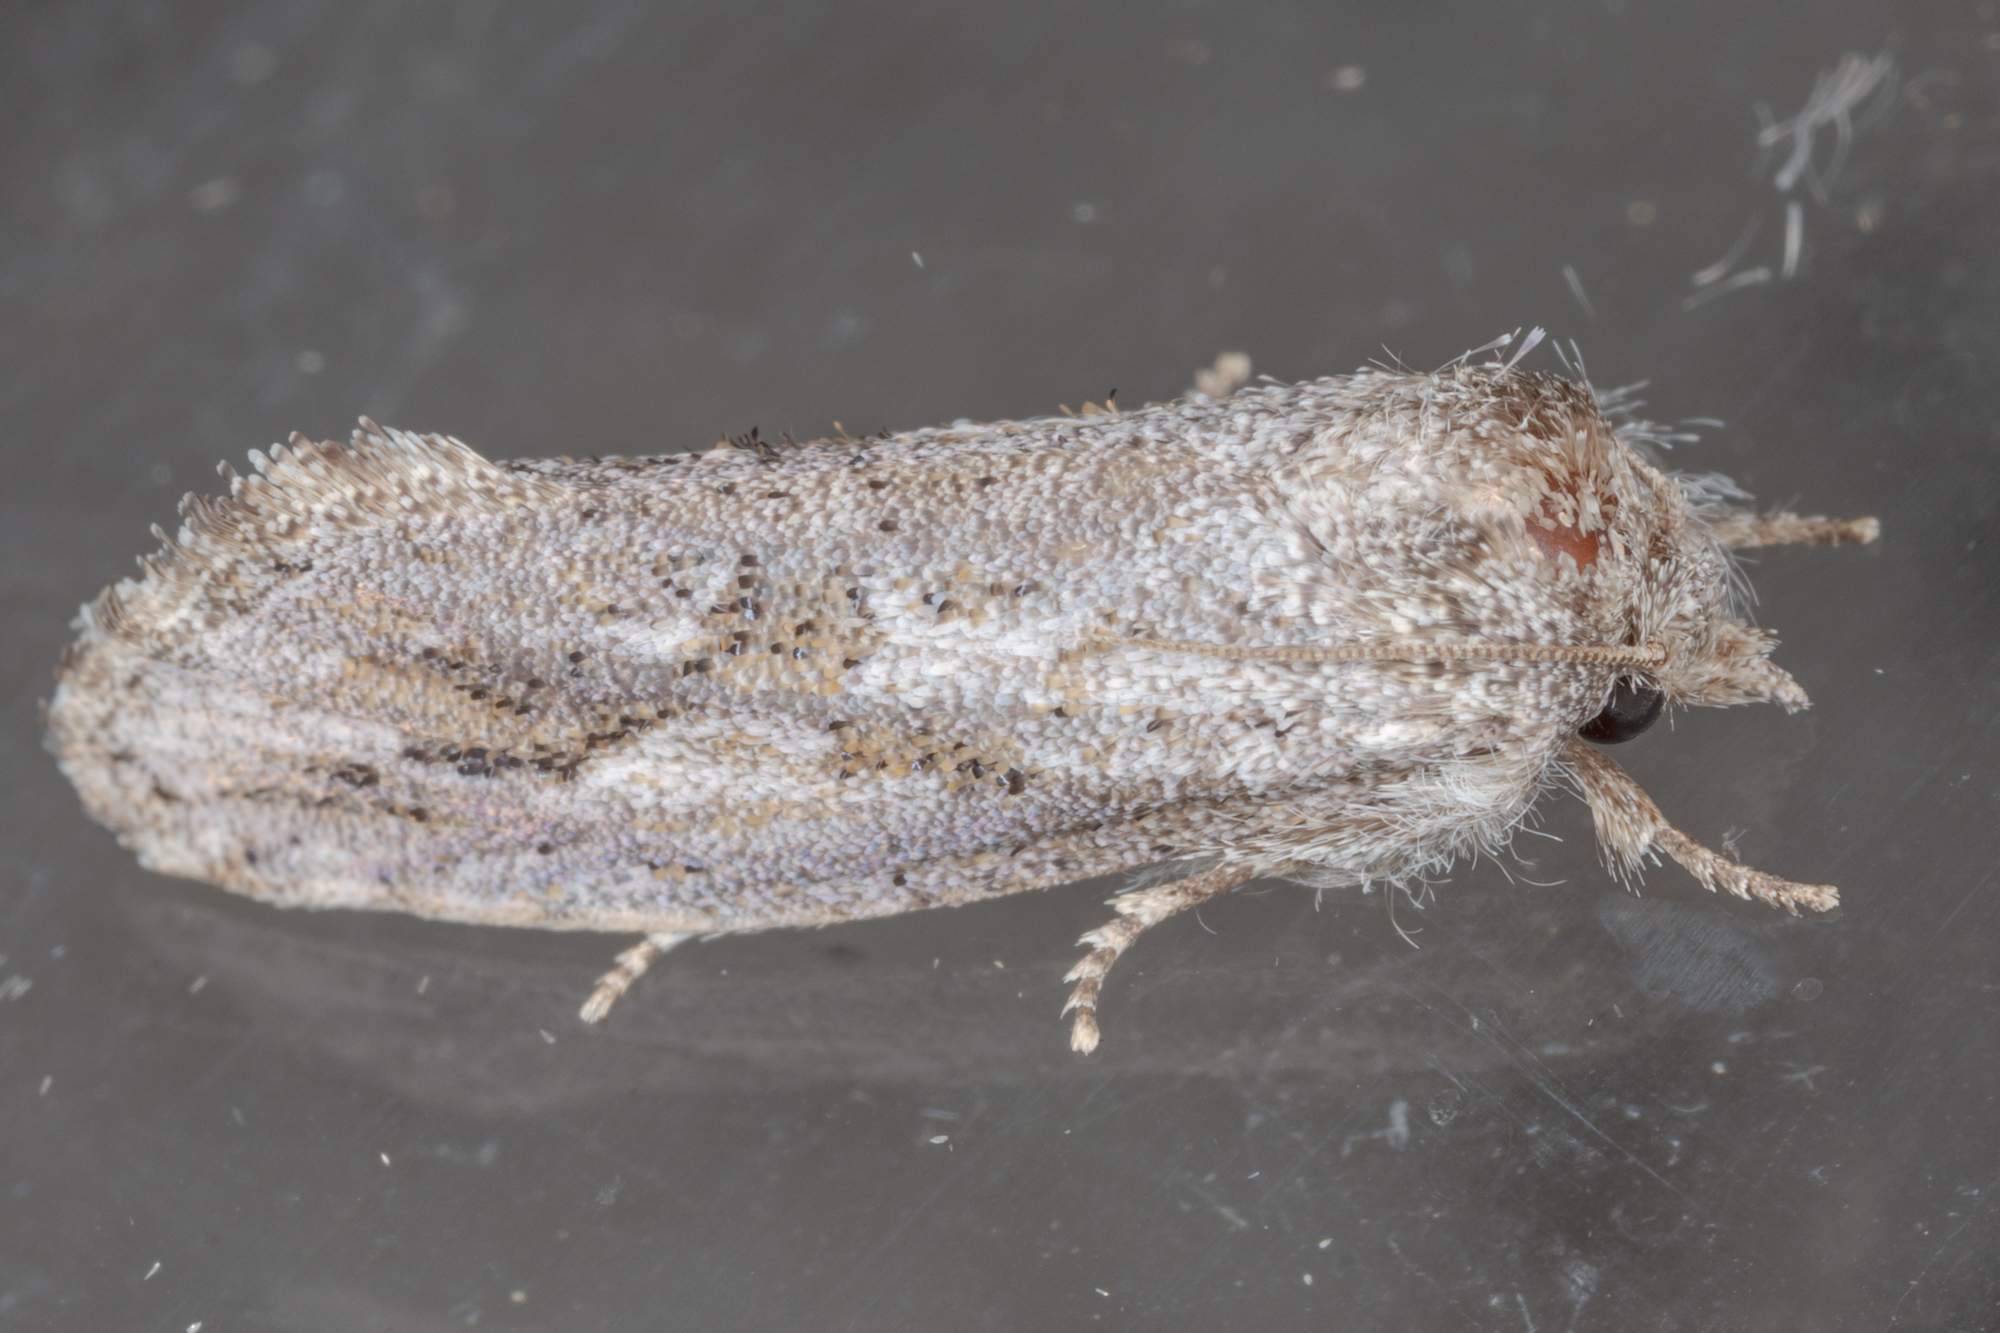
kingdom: Animalia
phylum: Arthropoda
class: Insecta
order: Lepidoptera
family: Tineidae
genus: Acrolophus
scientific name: Acrolophus griseus
